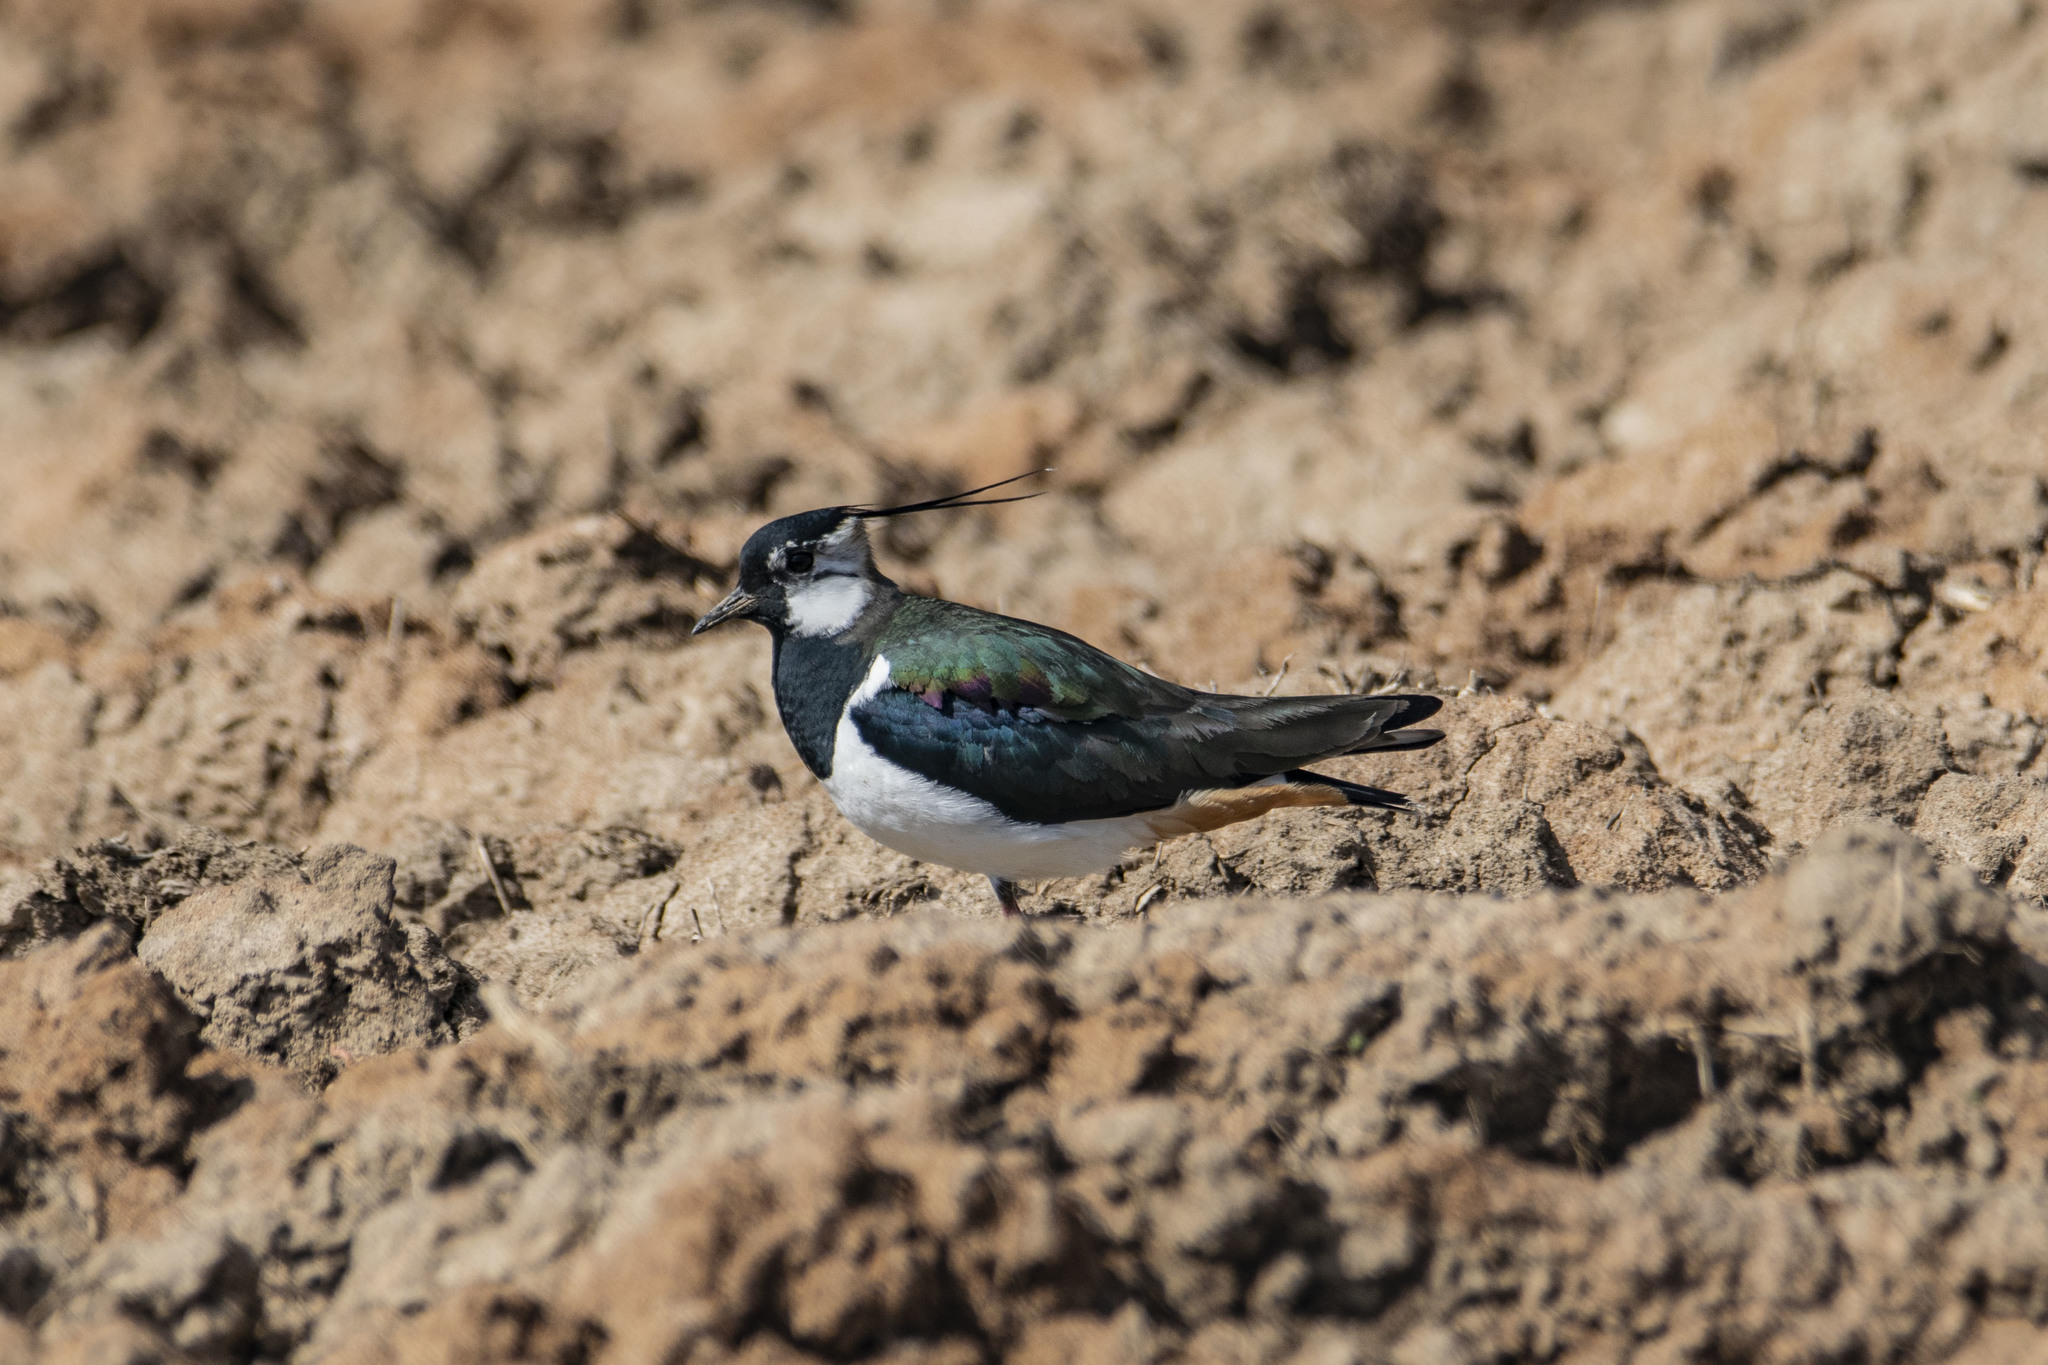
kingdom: Animalia
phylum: Chordata
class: Aves
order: Charadriiformes
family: Charadriidae
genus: Vanellus
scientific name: Vanellus vanellus
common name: Northern lapwing
